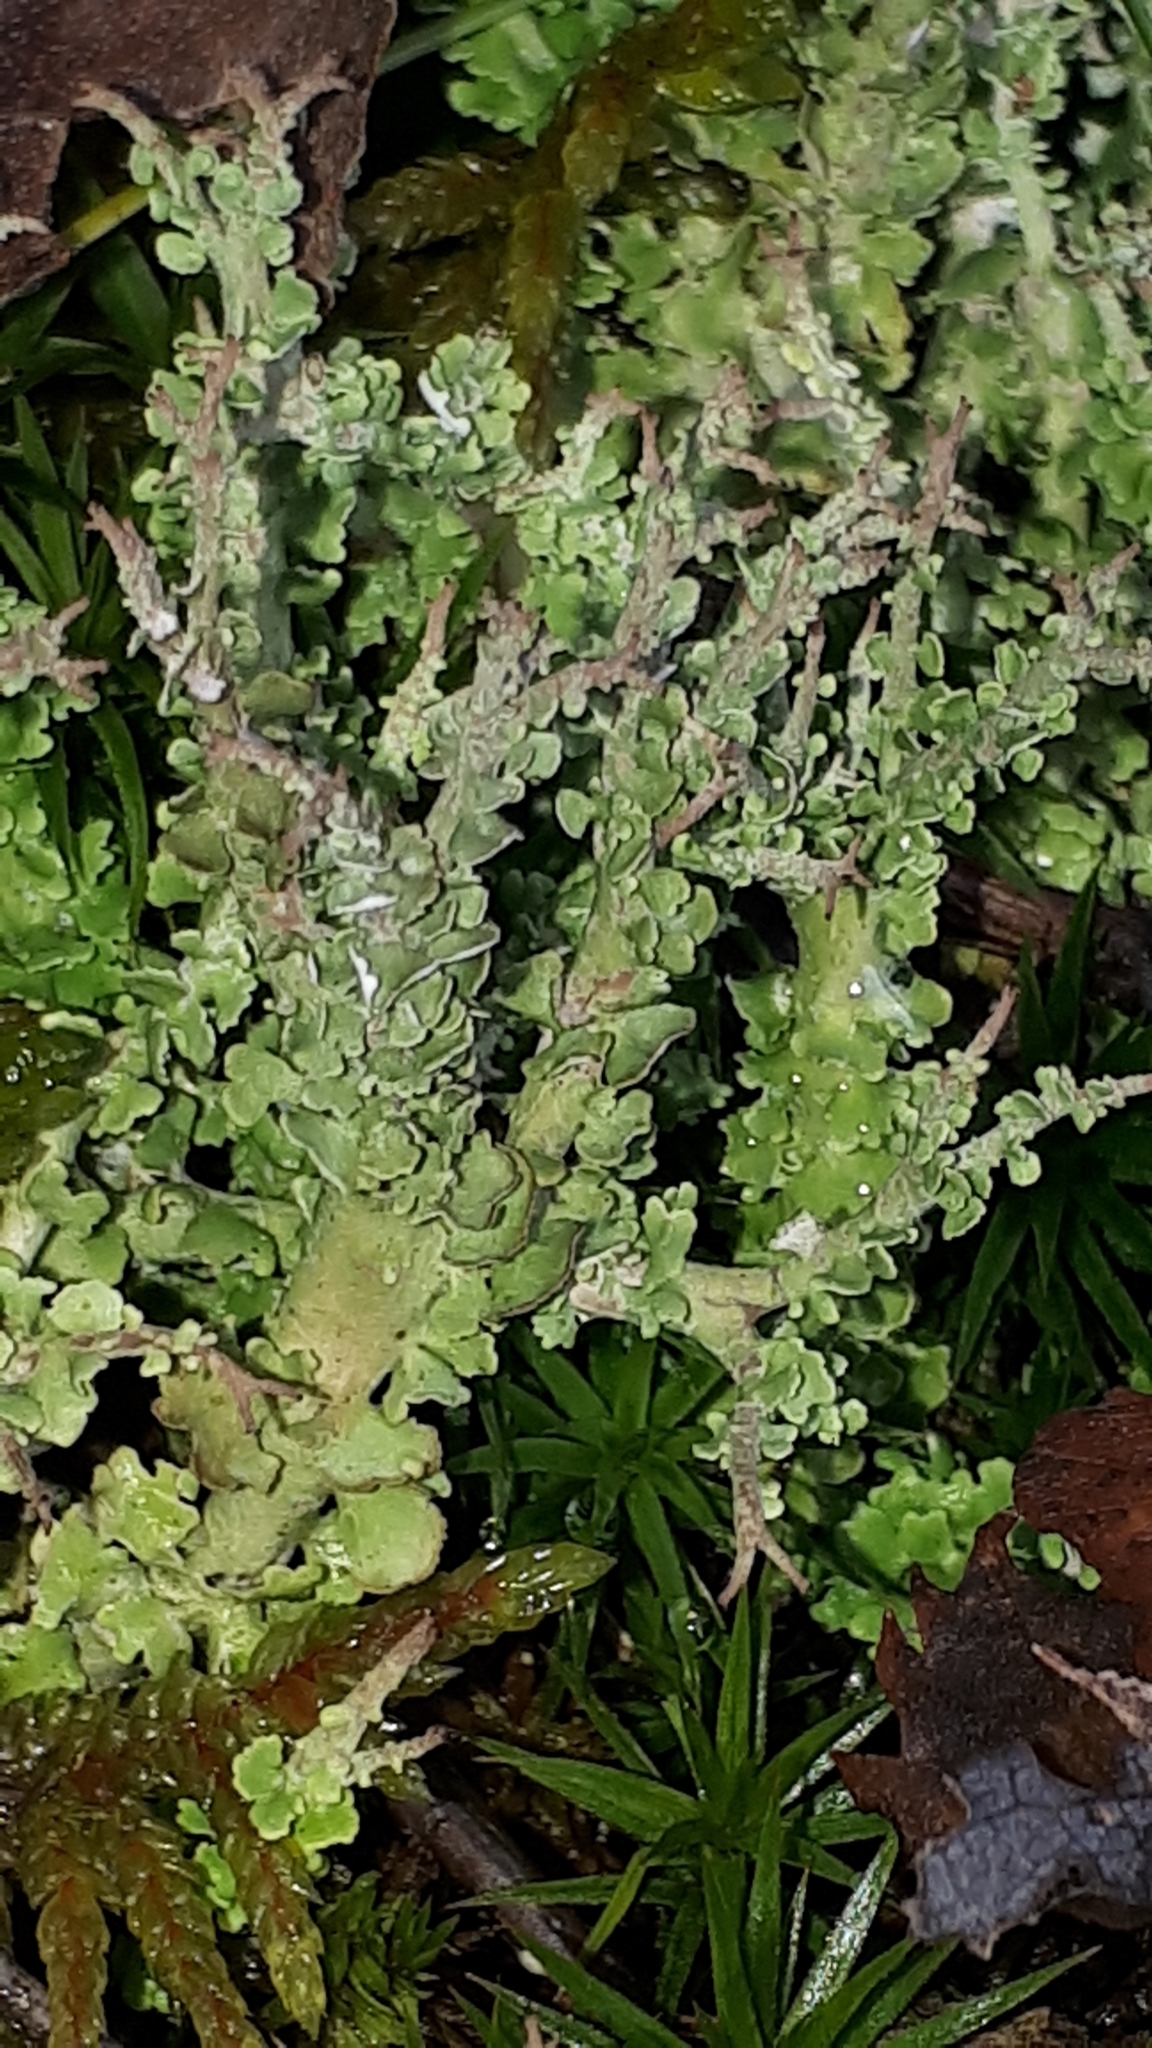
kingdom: Fungi
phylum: Ascomycota
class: Lecanoromycetes
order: Lecanorales
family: Cladoniaceae
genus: Cladonia
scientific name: Cladonia phyllophora
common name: Felt clad lichen
